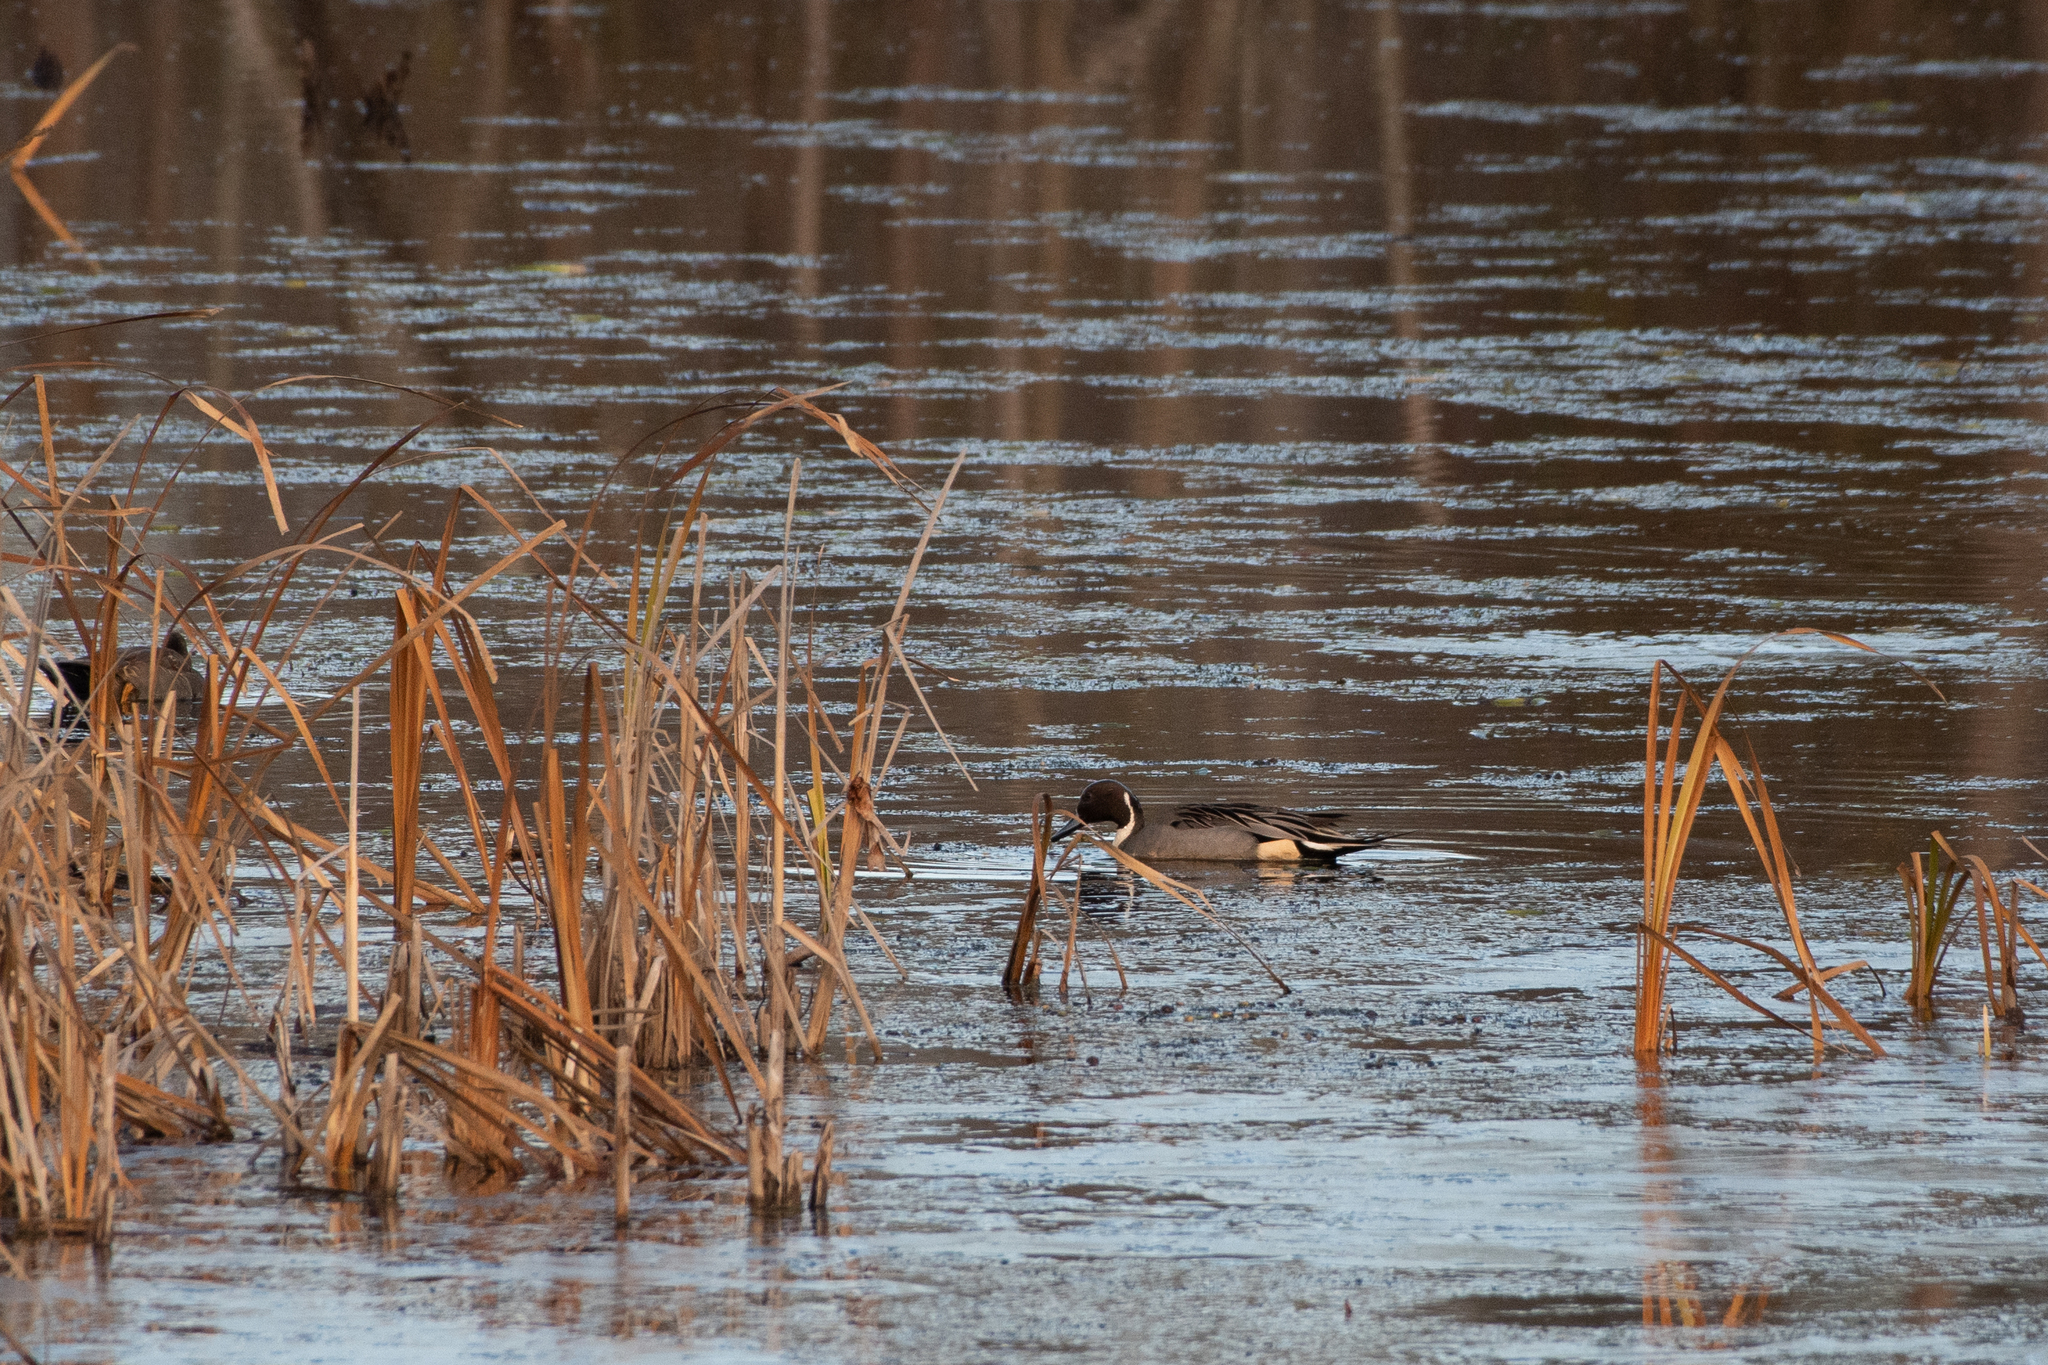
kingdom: Animalia
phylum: Chordata
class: Aves
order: Anseriformes
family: Anatidae
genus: Anas
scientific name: Anas acuta
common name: Northern pintail
